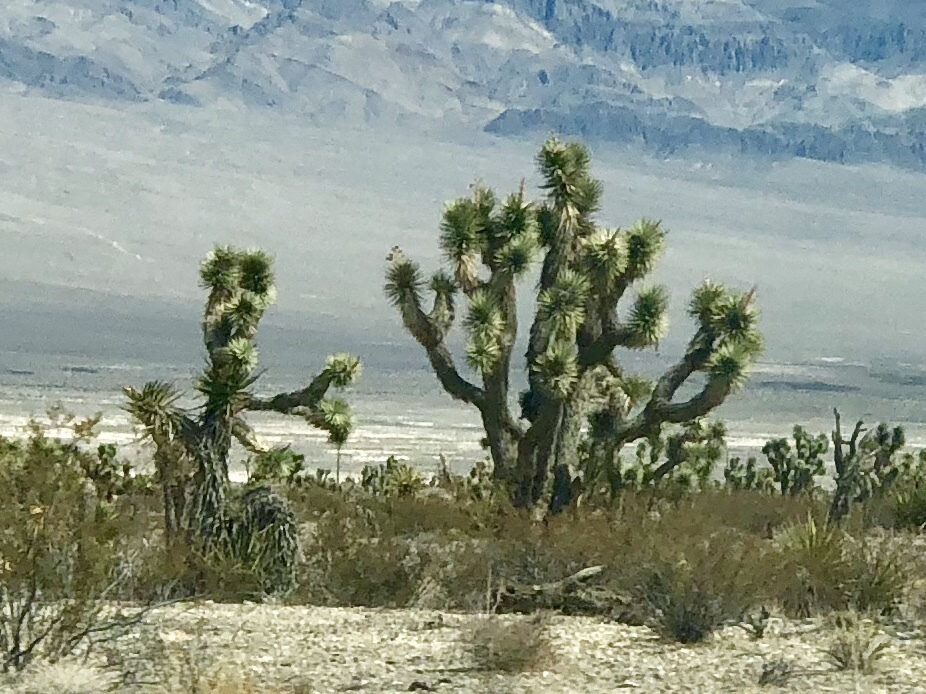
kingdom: Plantae
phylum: Tracheophyta
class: Liliopsida
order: Asparagales
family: Asparagaceae
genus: Yucca
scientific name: Yucca brevifolia
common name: Joshua tree
